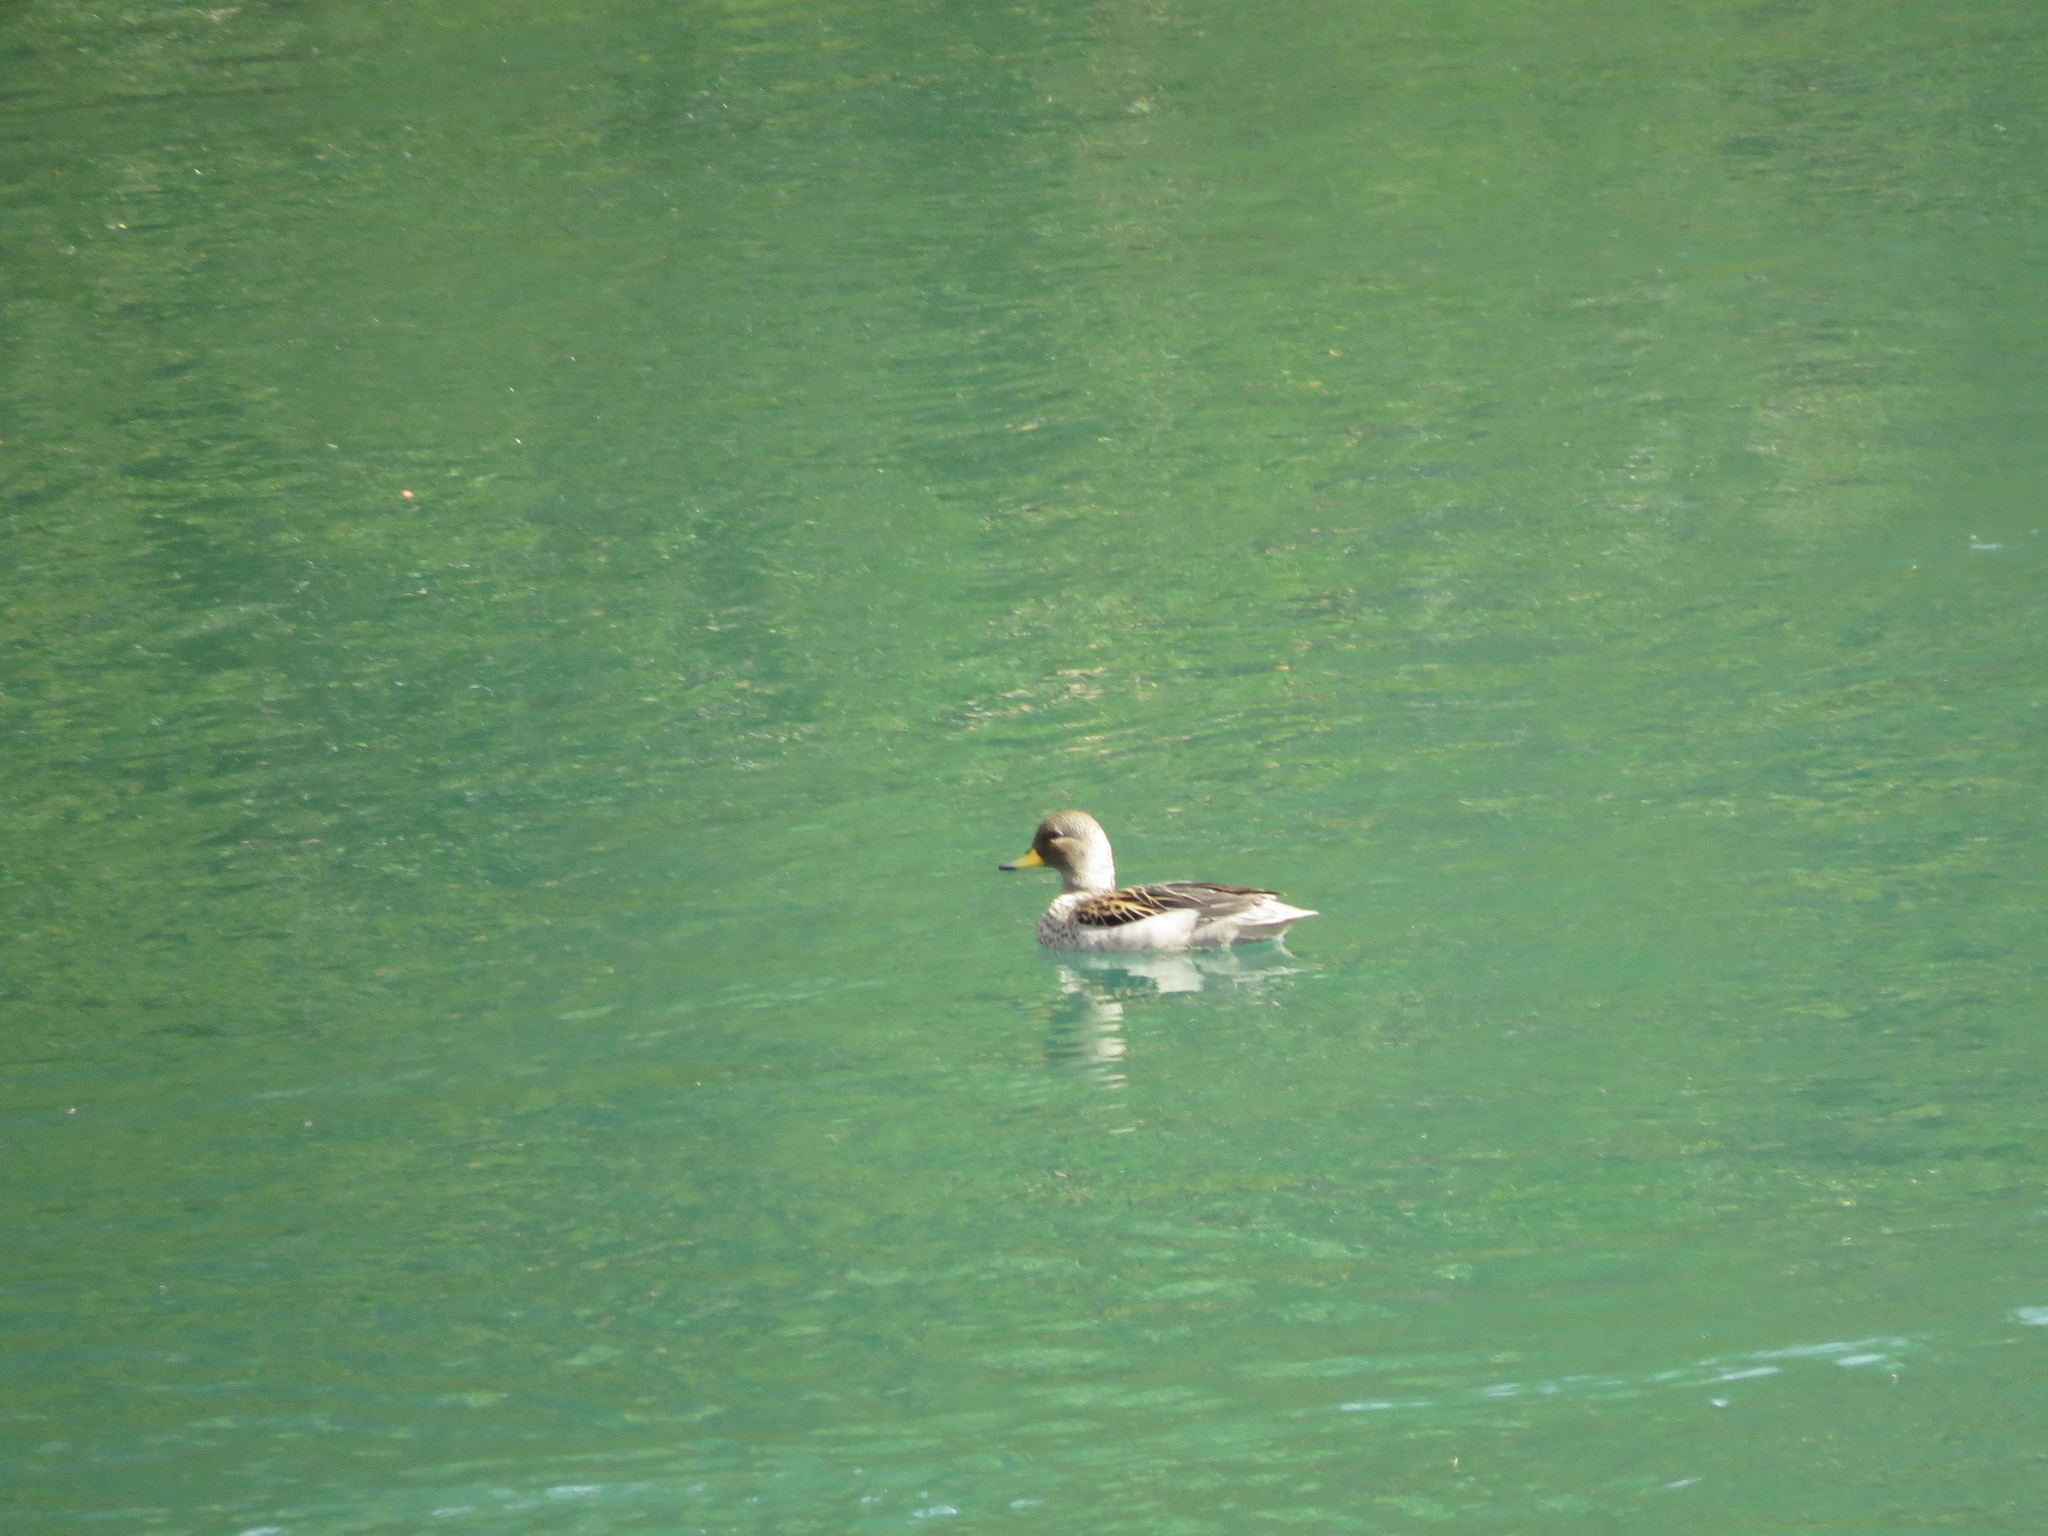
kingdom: Animalia
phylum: Chordata
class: Aves
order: Anseriformes
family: Anatidae
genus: Anas
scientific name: Anas flavirostris
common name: Yellow-billed teal
